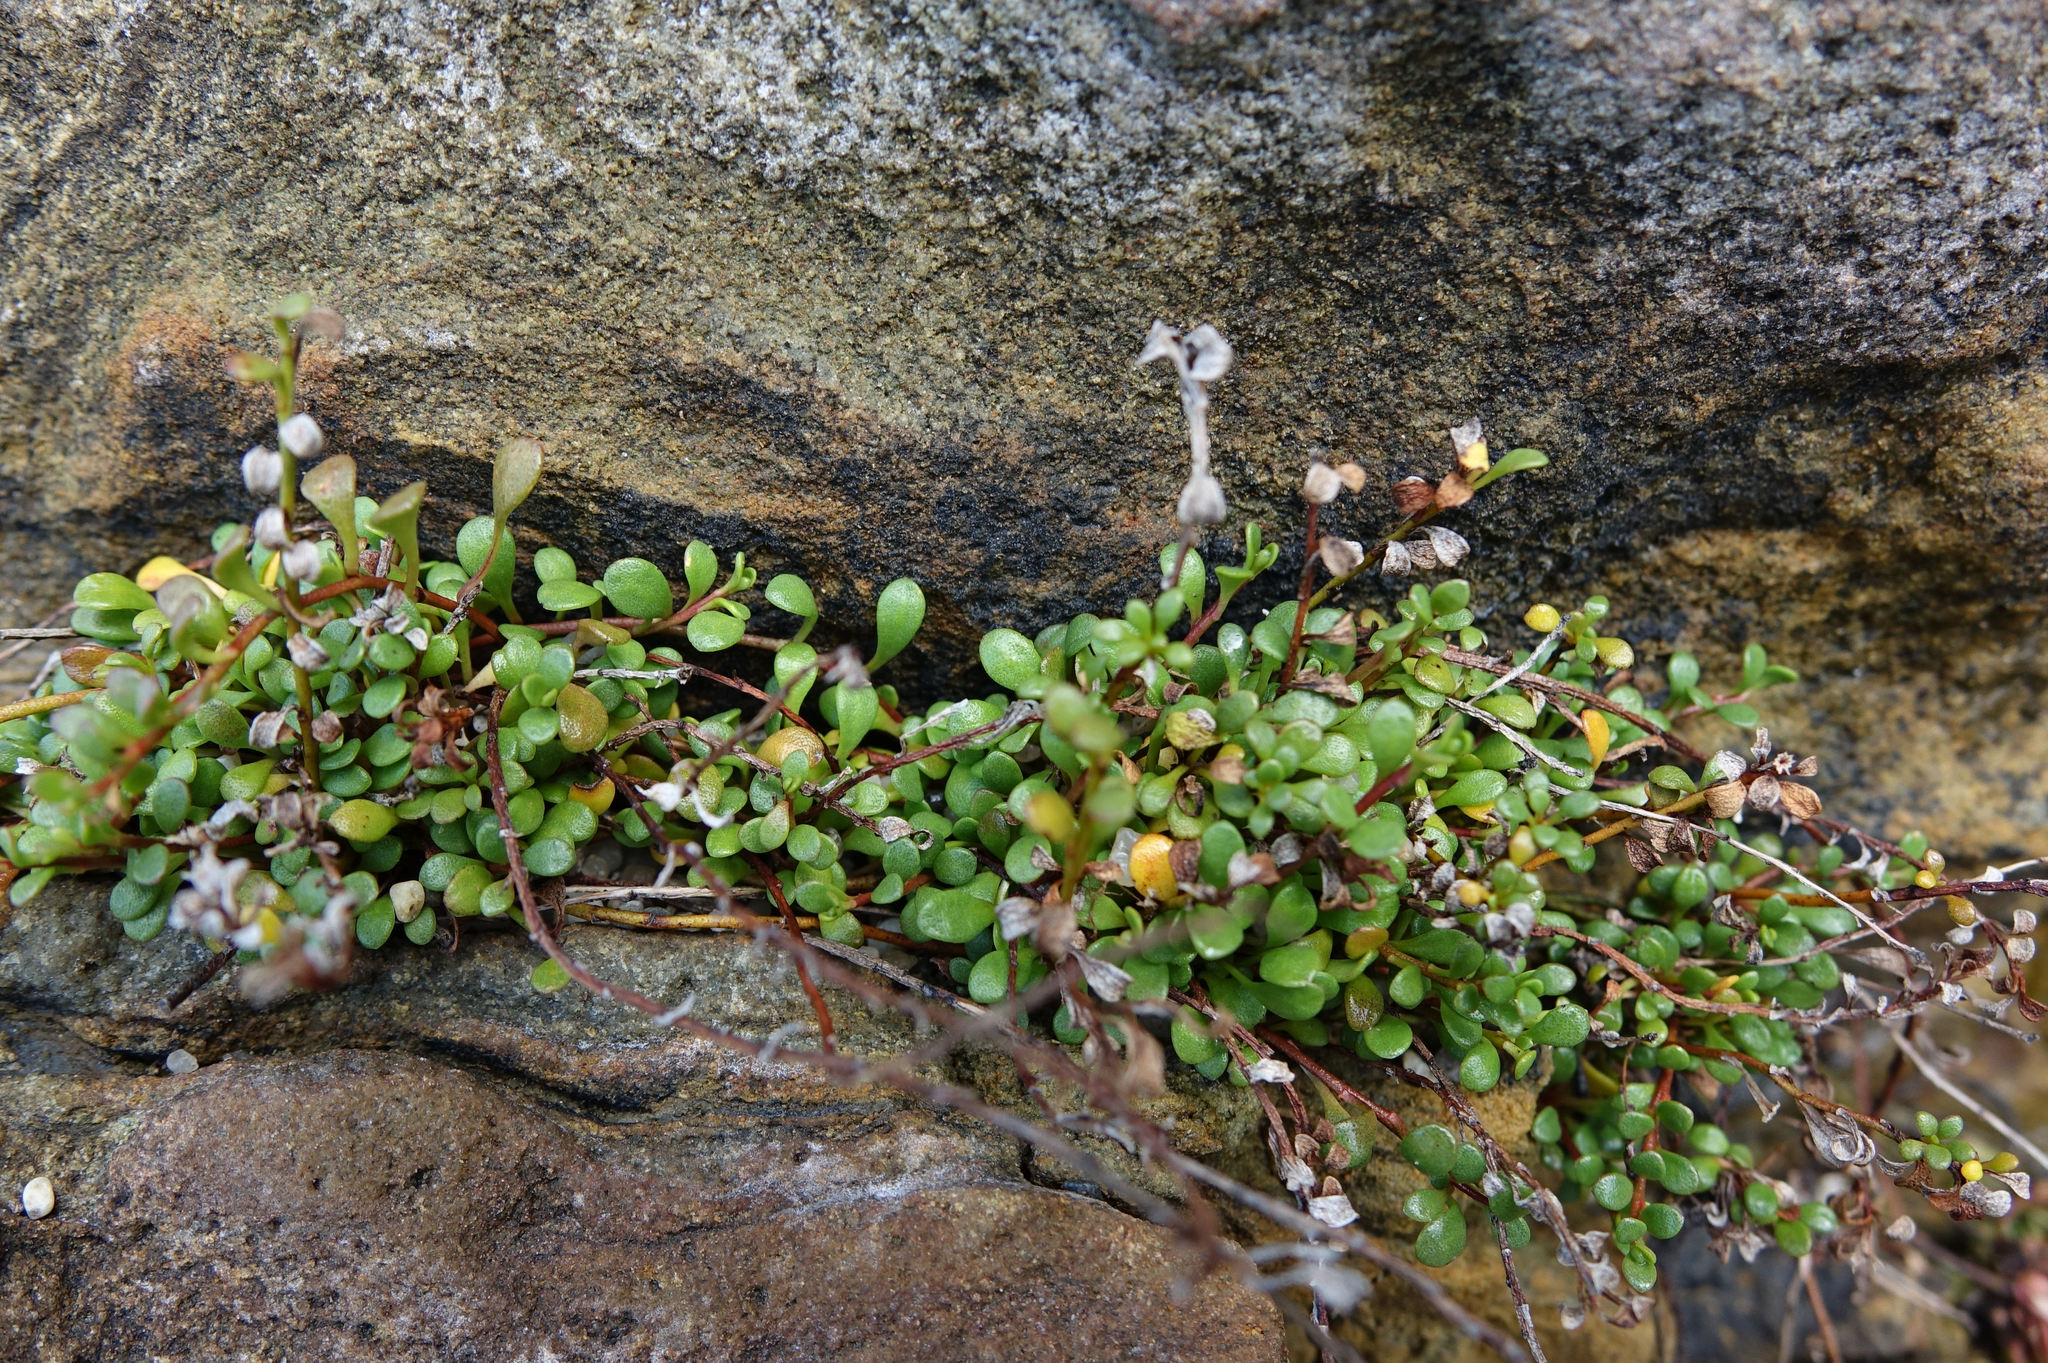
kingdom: Plantae
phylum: Tracheophyta
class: Magnoliopsida
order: Ericales
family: Primulaceae
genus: Samolus
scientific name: Samolus repens
